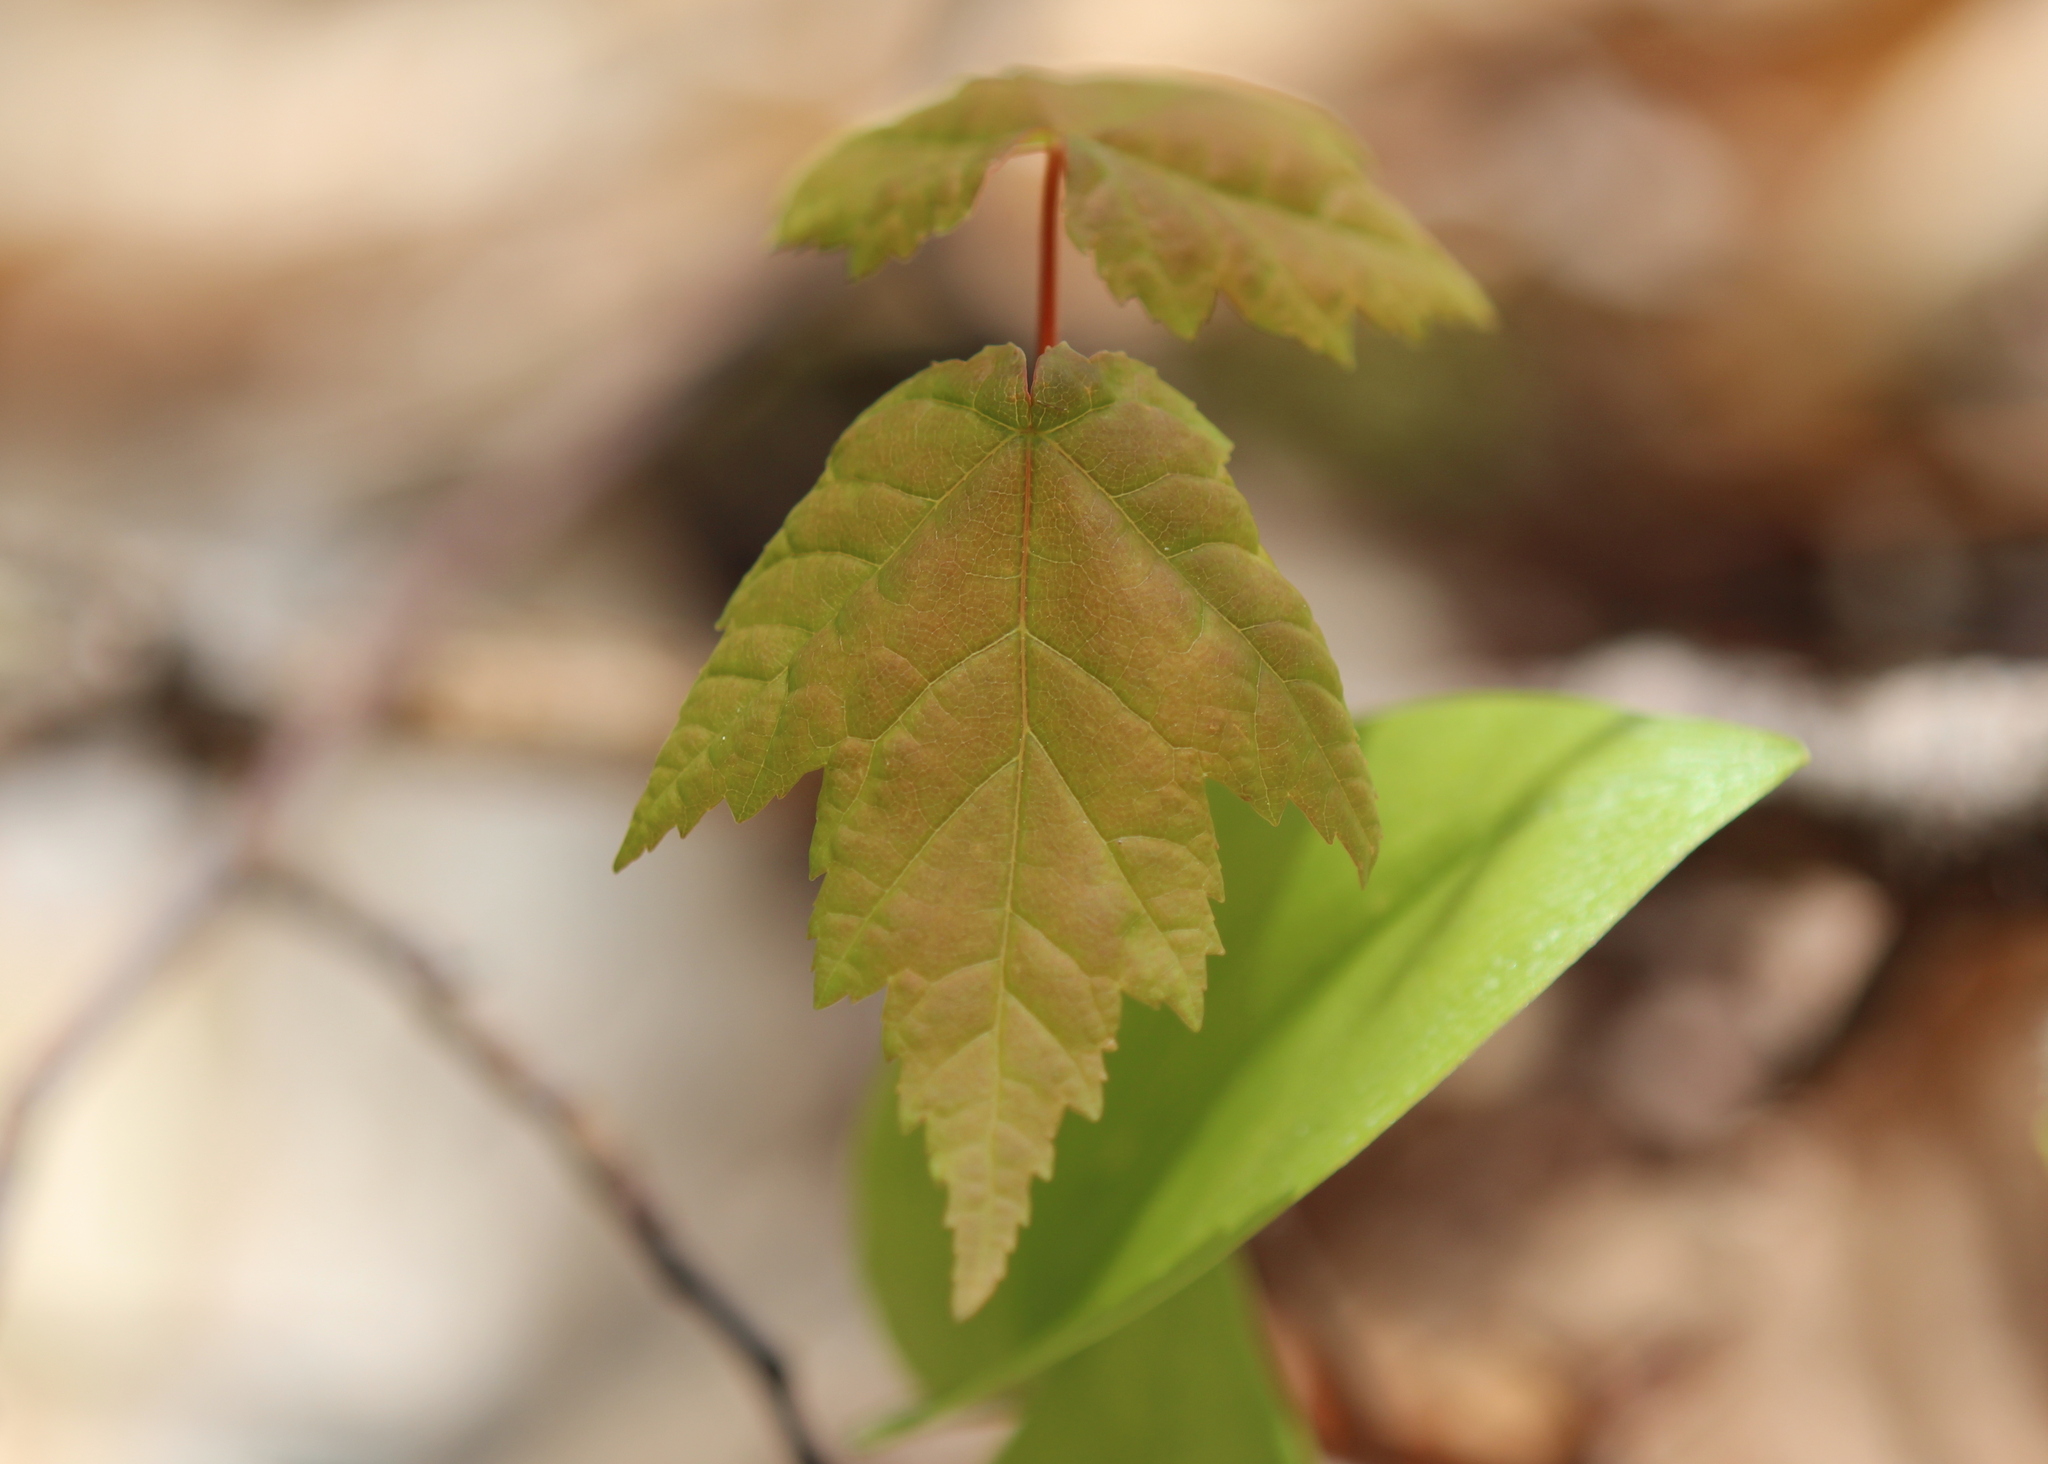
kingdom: Plantae
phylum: Tracheophyta
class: Magnoliopsida
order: Sapindales
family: Sapindaceae
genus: Acer
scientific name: Acer rubrum
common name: Red maple
